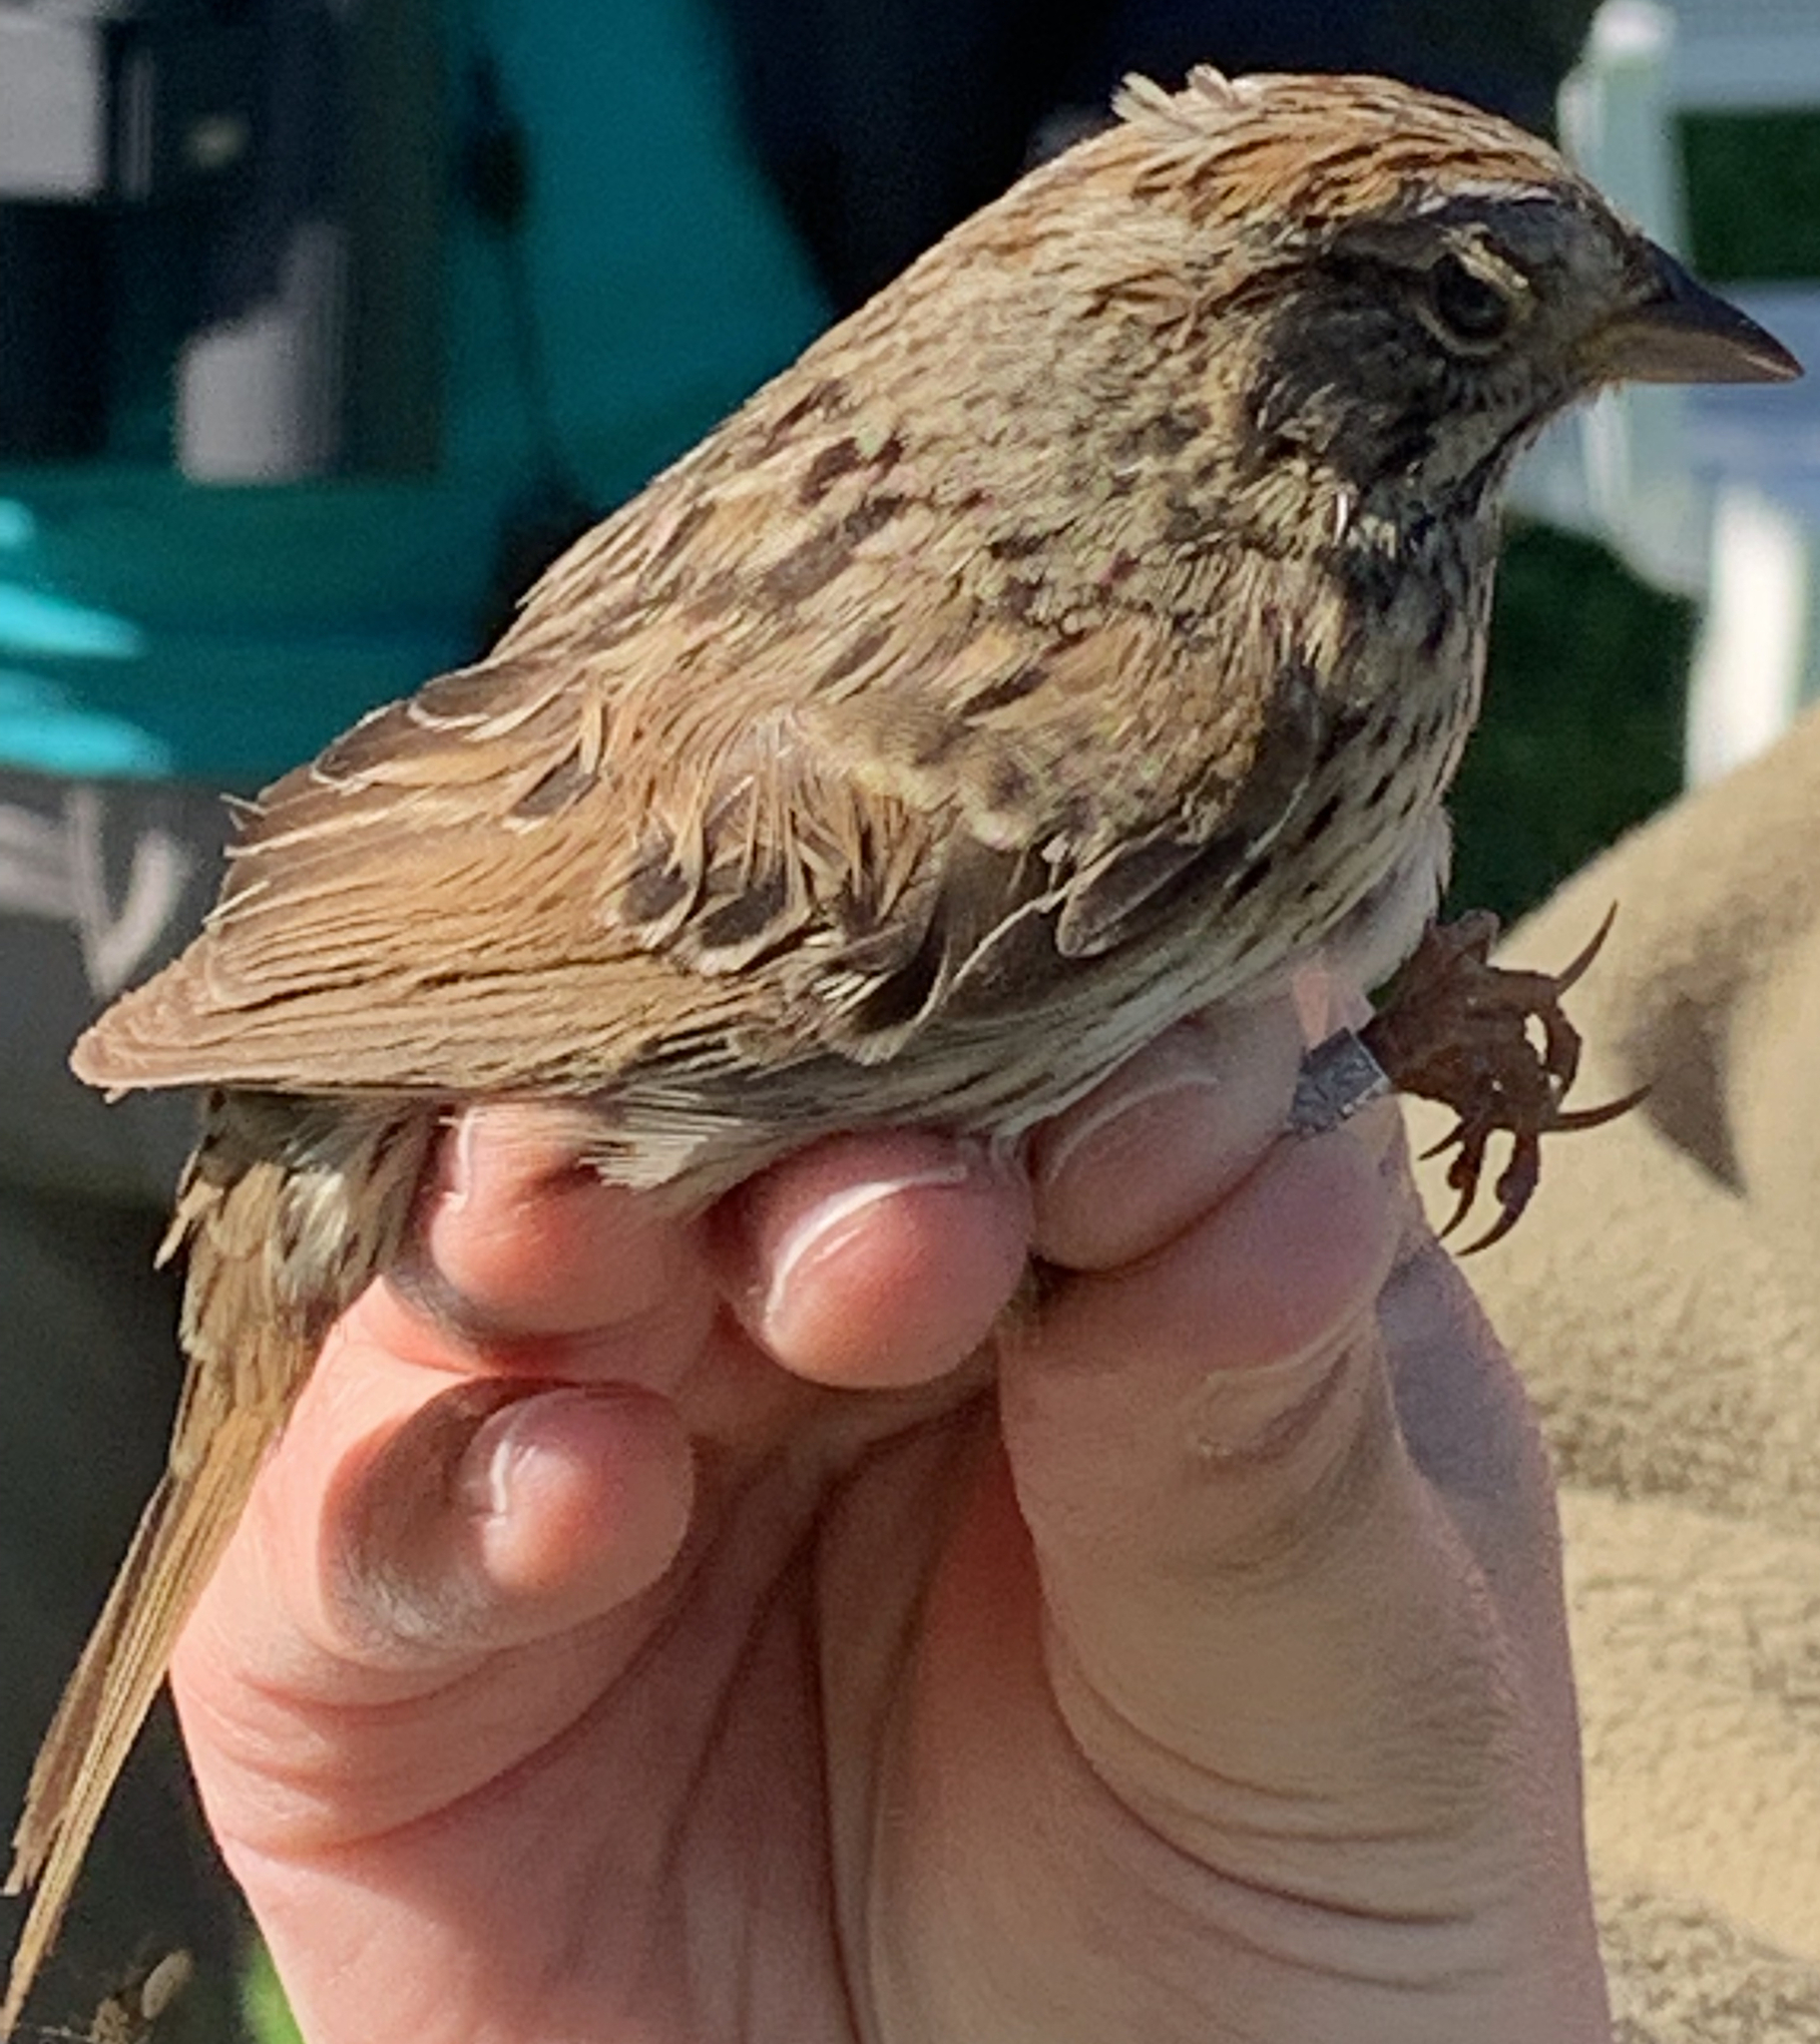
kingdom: Animalia
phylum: Chordata
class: Aves
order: Passeriformes
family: Passerellidae
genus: Melospiza
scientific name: Melospiza lincolnii
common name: Lincoln's sparrow
